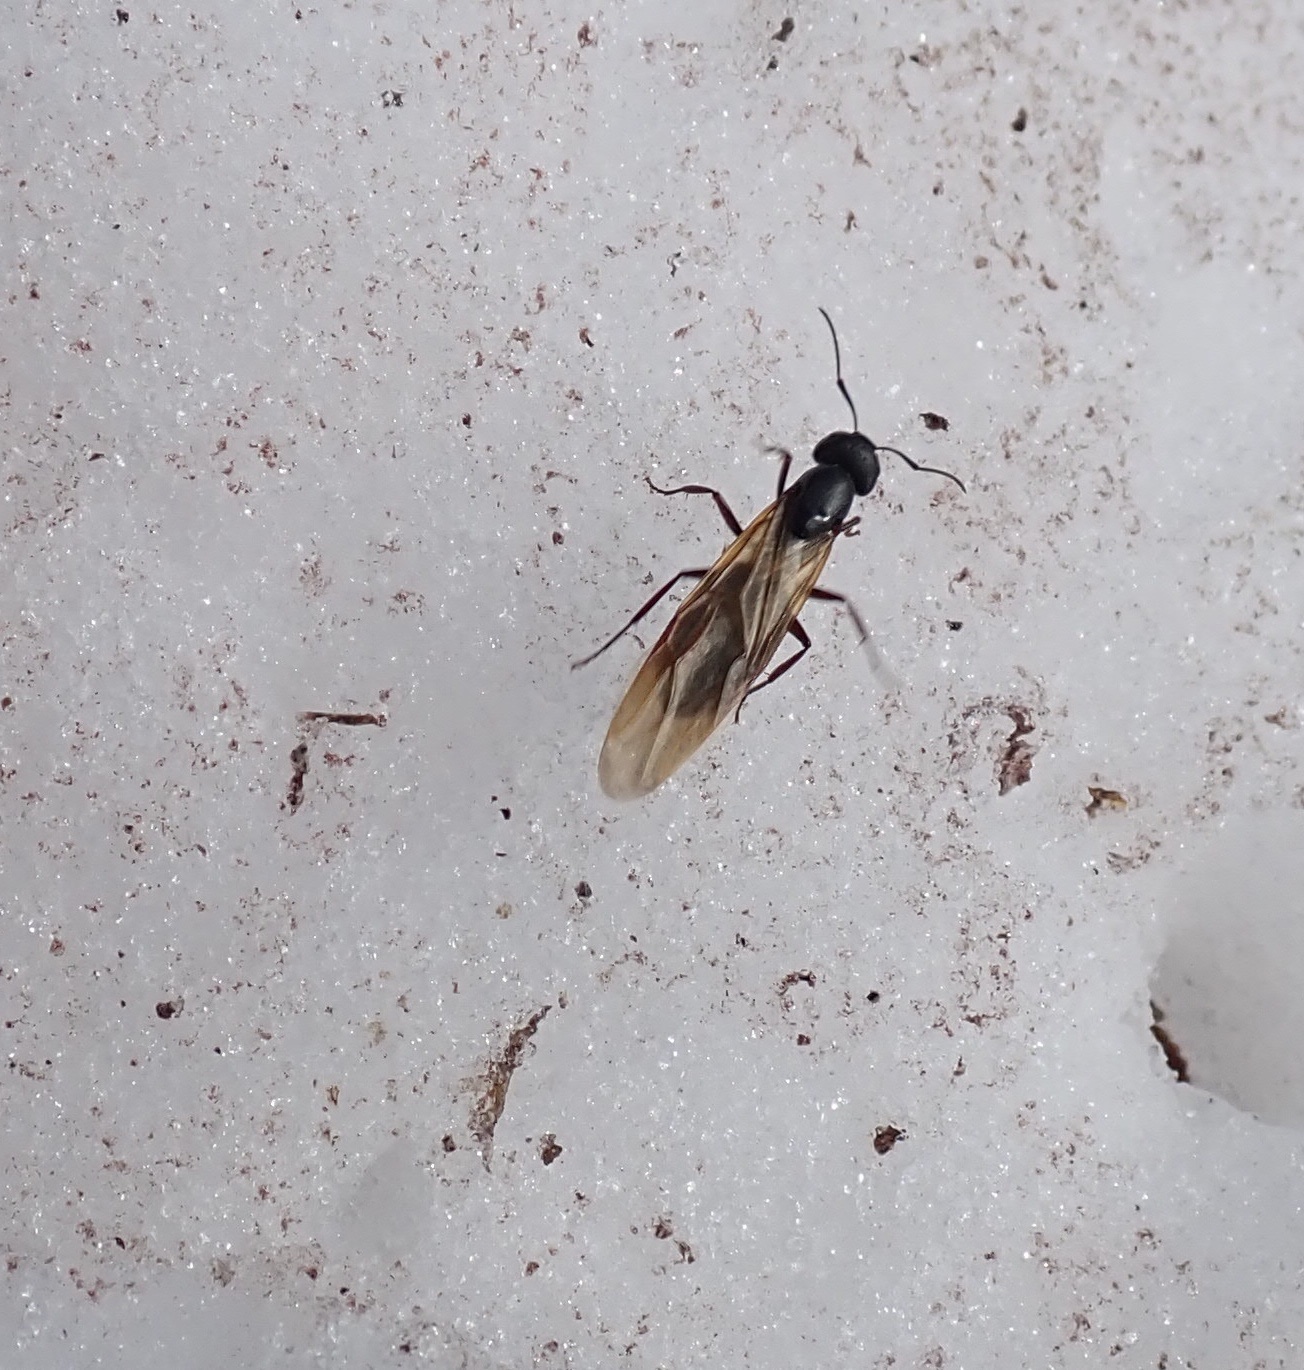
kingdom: Animalia
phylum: Arthropoda
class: Insecta
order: Hymenoptera
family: Formicidae
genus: Camponotus
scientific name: Camponotus modoc
